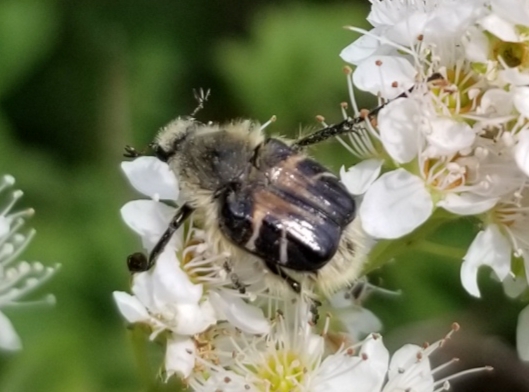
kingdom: Animalia
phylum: Arthropoda
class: Insecta
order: Coleoptera
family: Scarabaeidae
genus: Trichiotinus
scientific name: Trichiotinus assimilis
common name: Bee-mimic beetle
